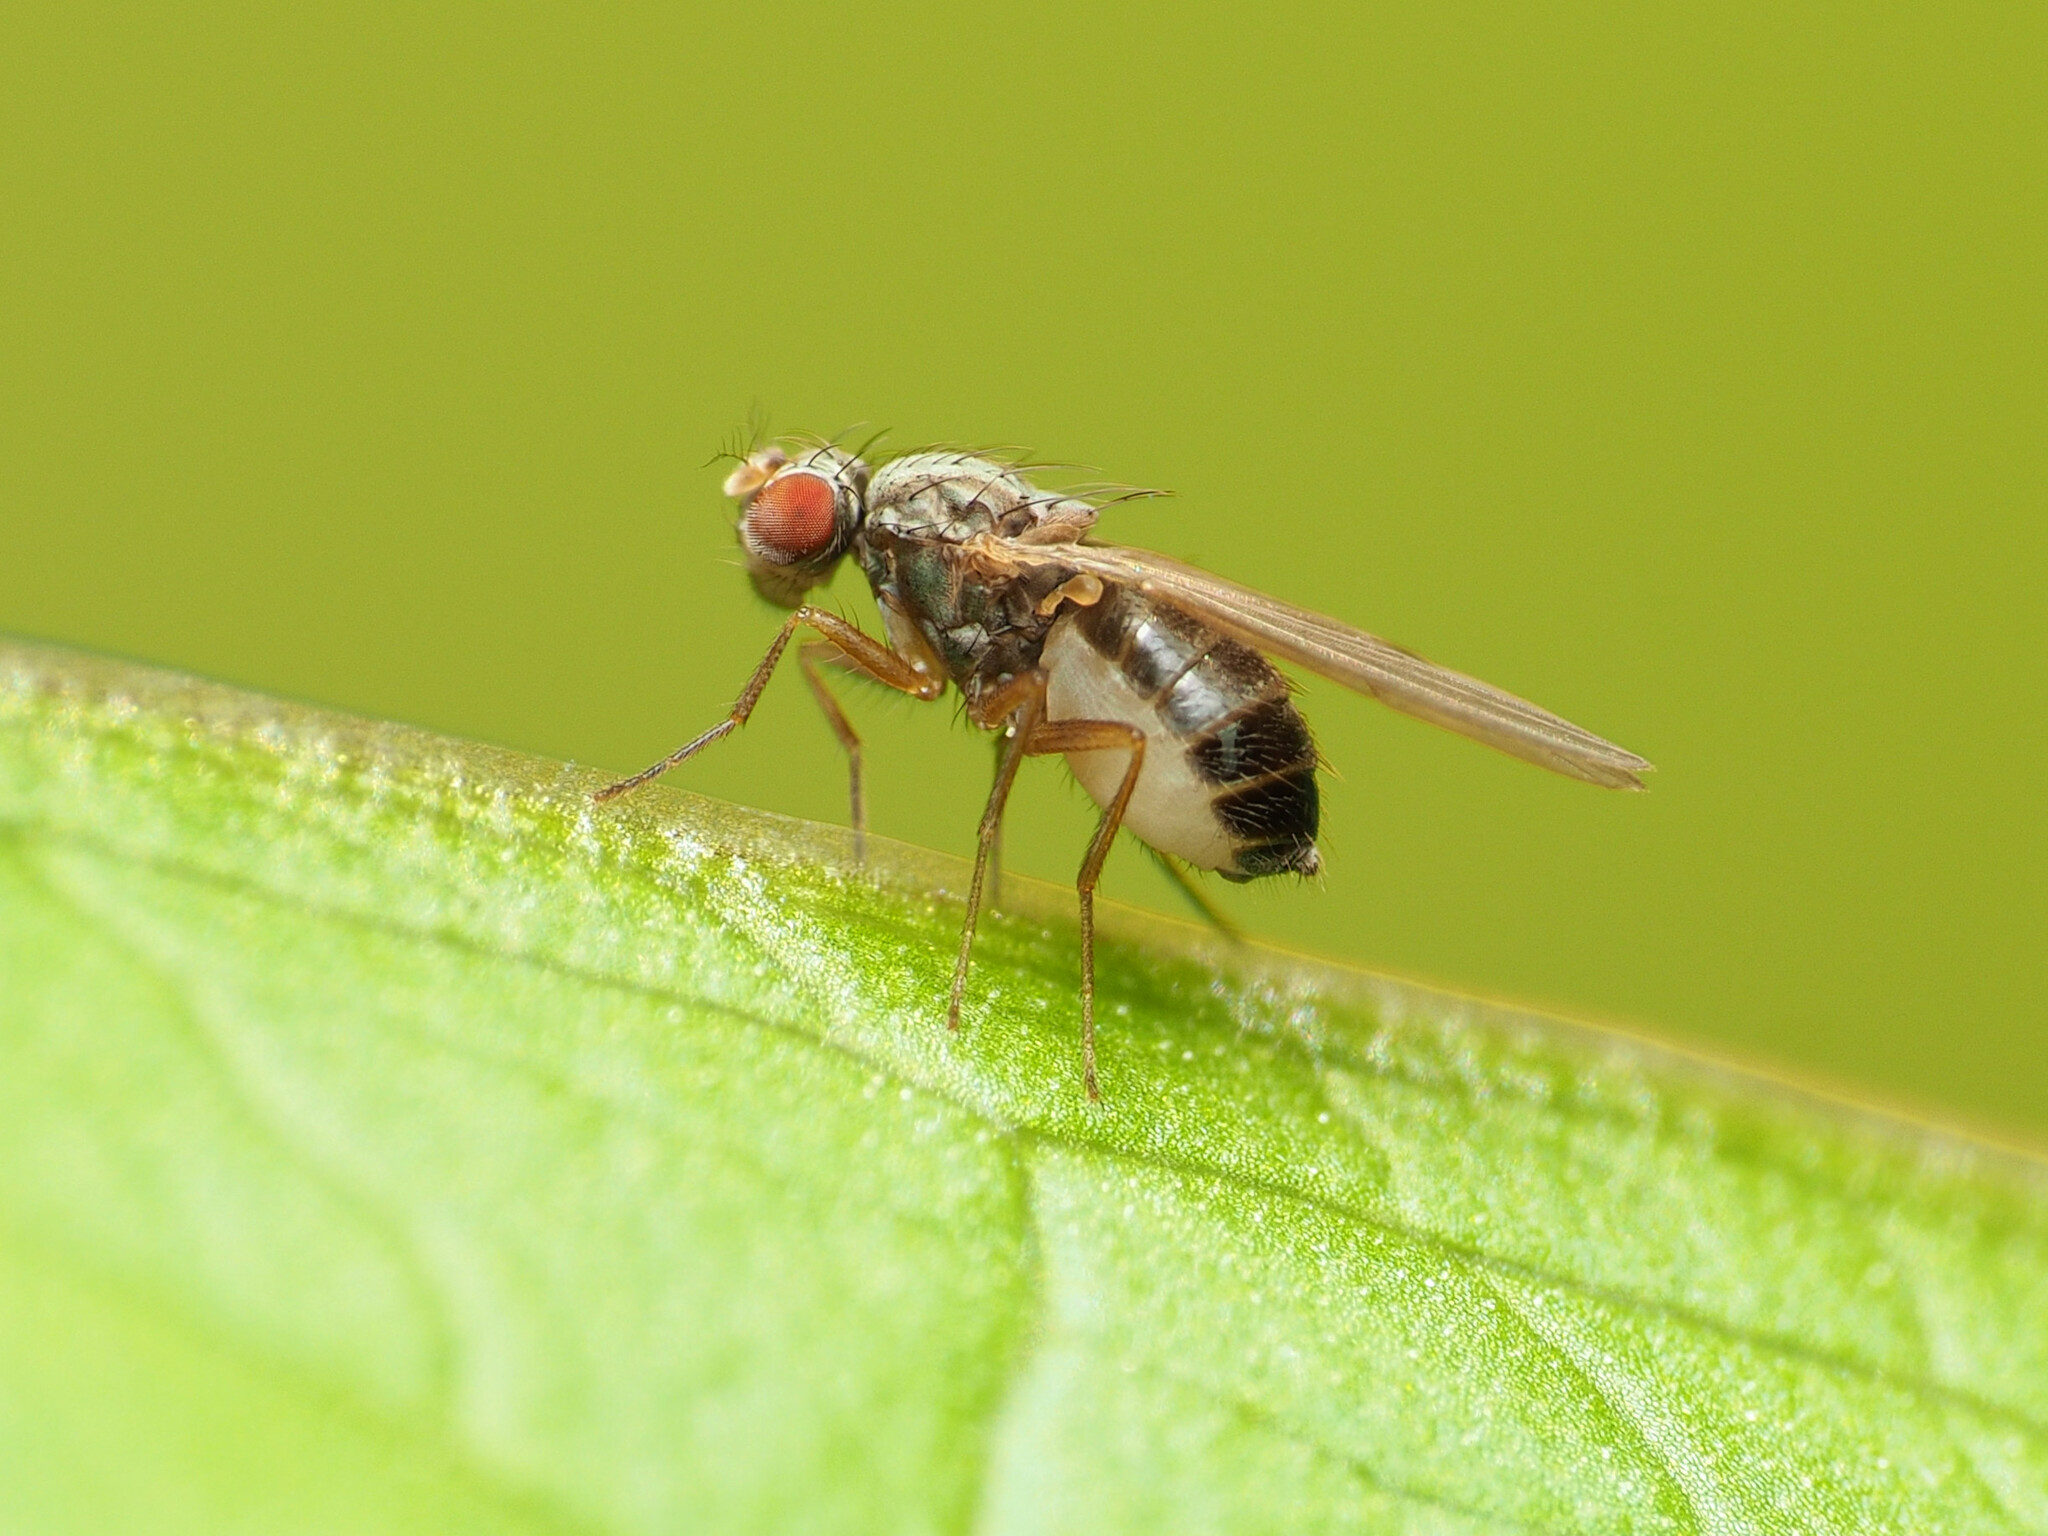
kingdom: Animalia
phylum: Arthropoda
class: Insecta
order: Diptera
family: Drosophilidae
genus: Scaptomyza
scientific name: Scaptomyza pallida
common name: Pomace fly
